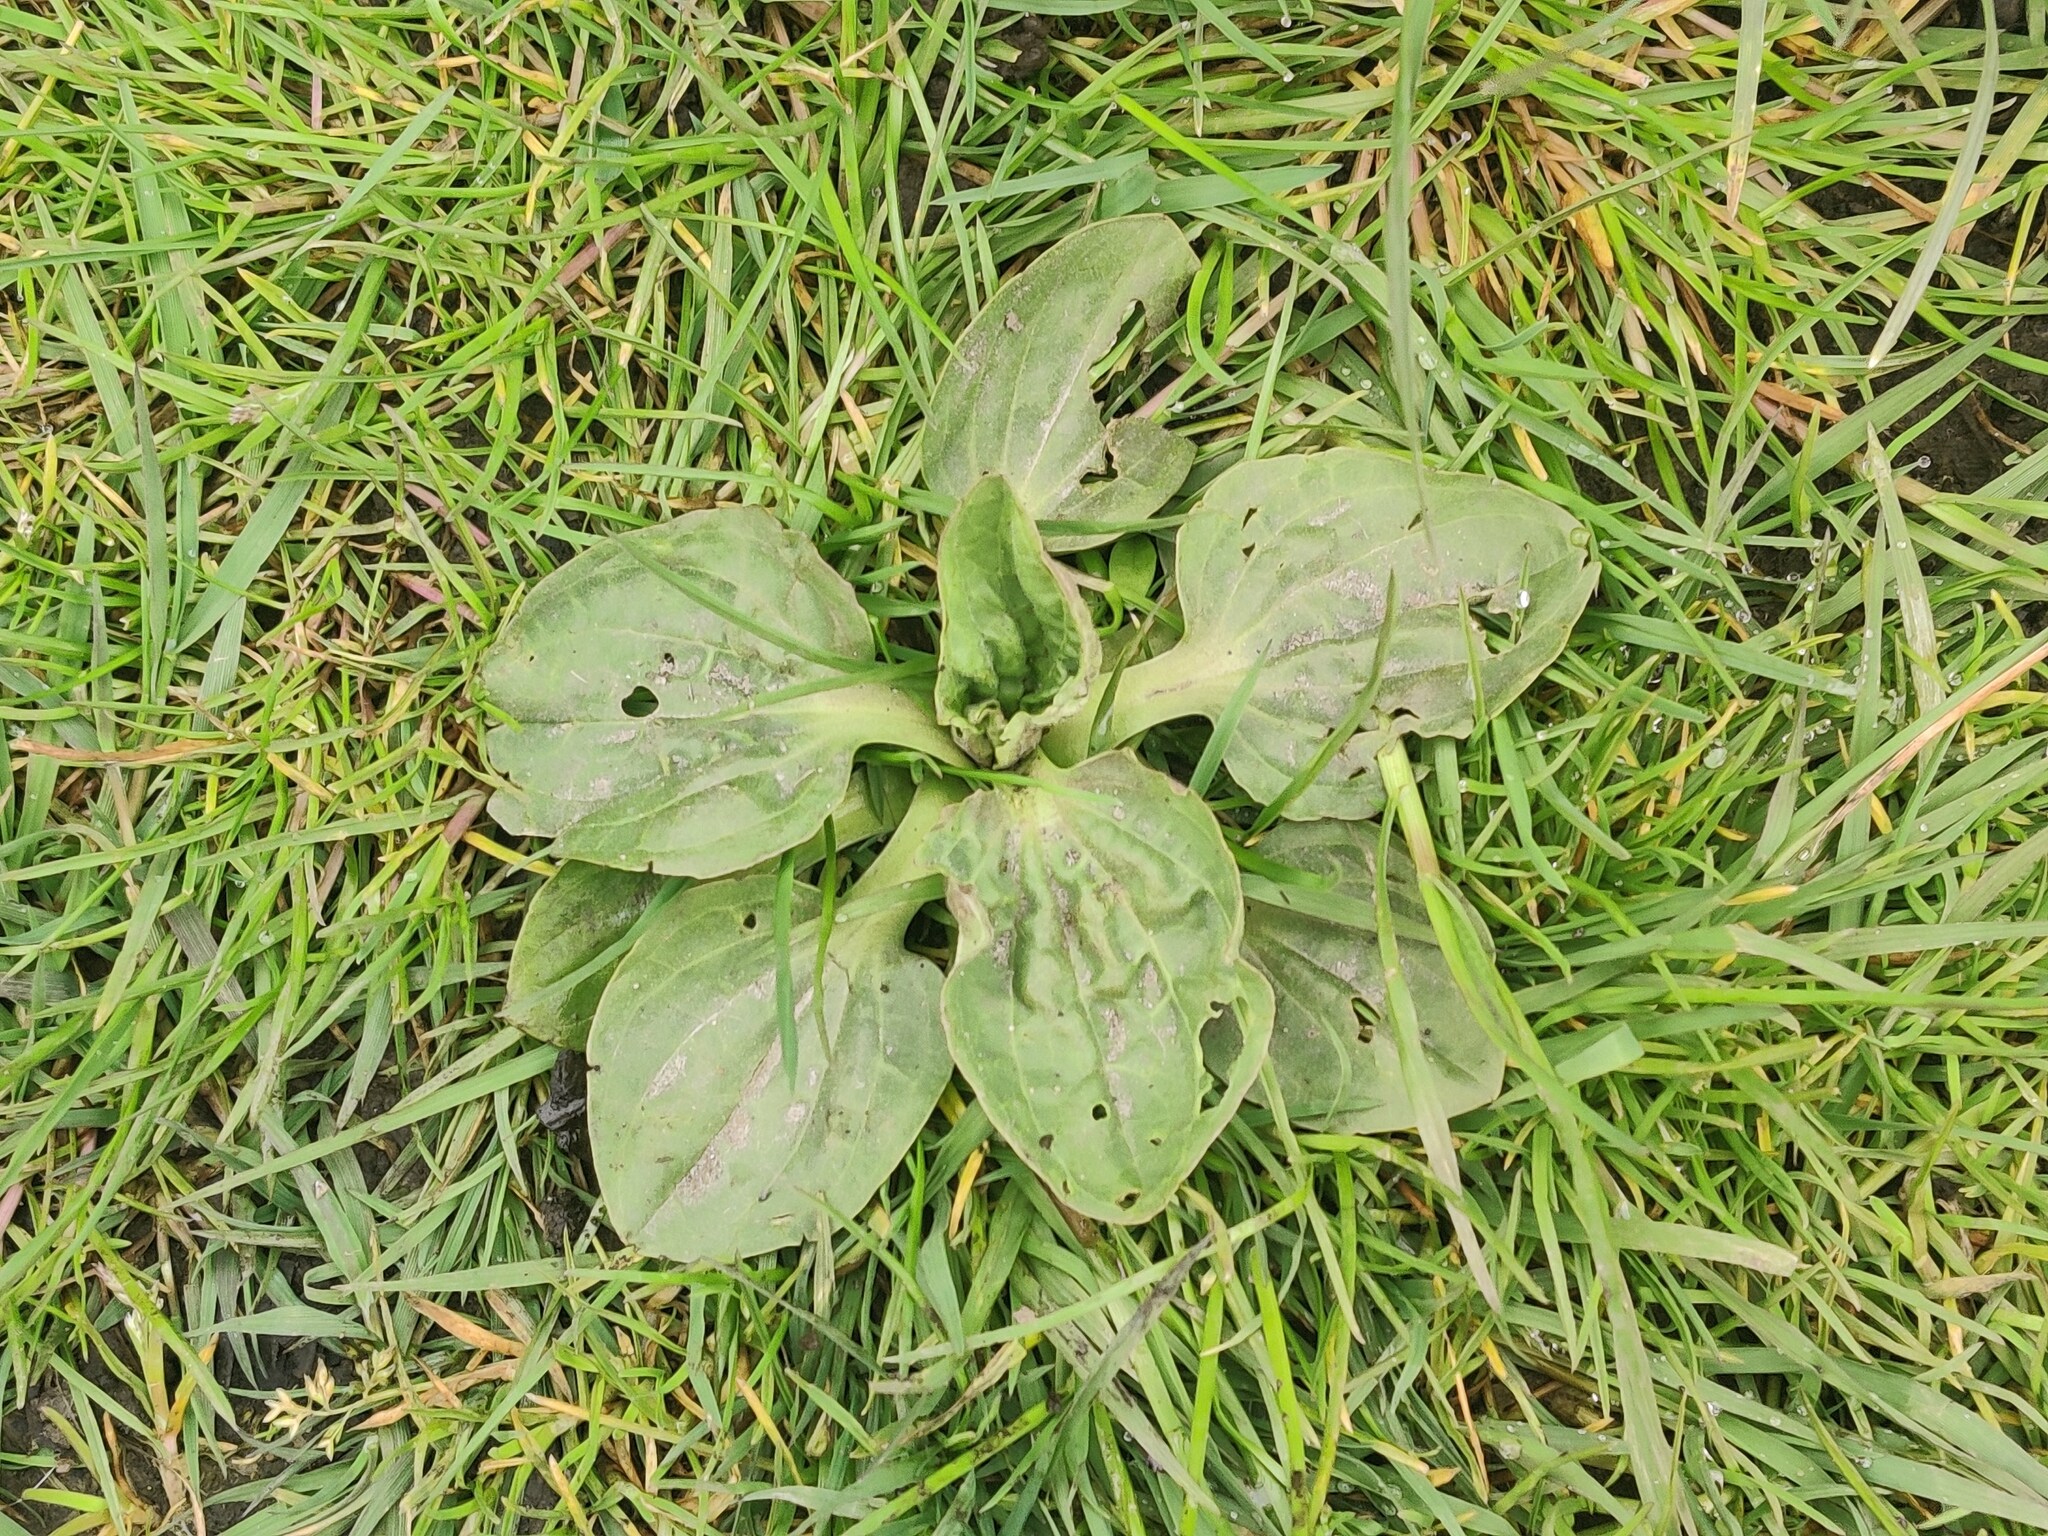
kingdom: Plantae
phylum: Tracheophyta
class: Magnoliopsida
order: Lamiales
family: Plantaginaceae
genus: Plantago
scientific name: Plantago major
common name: Common plantain
